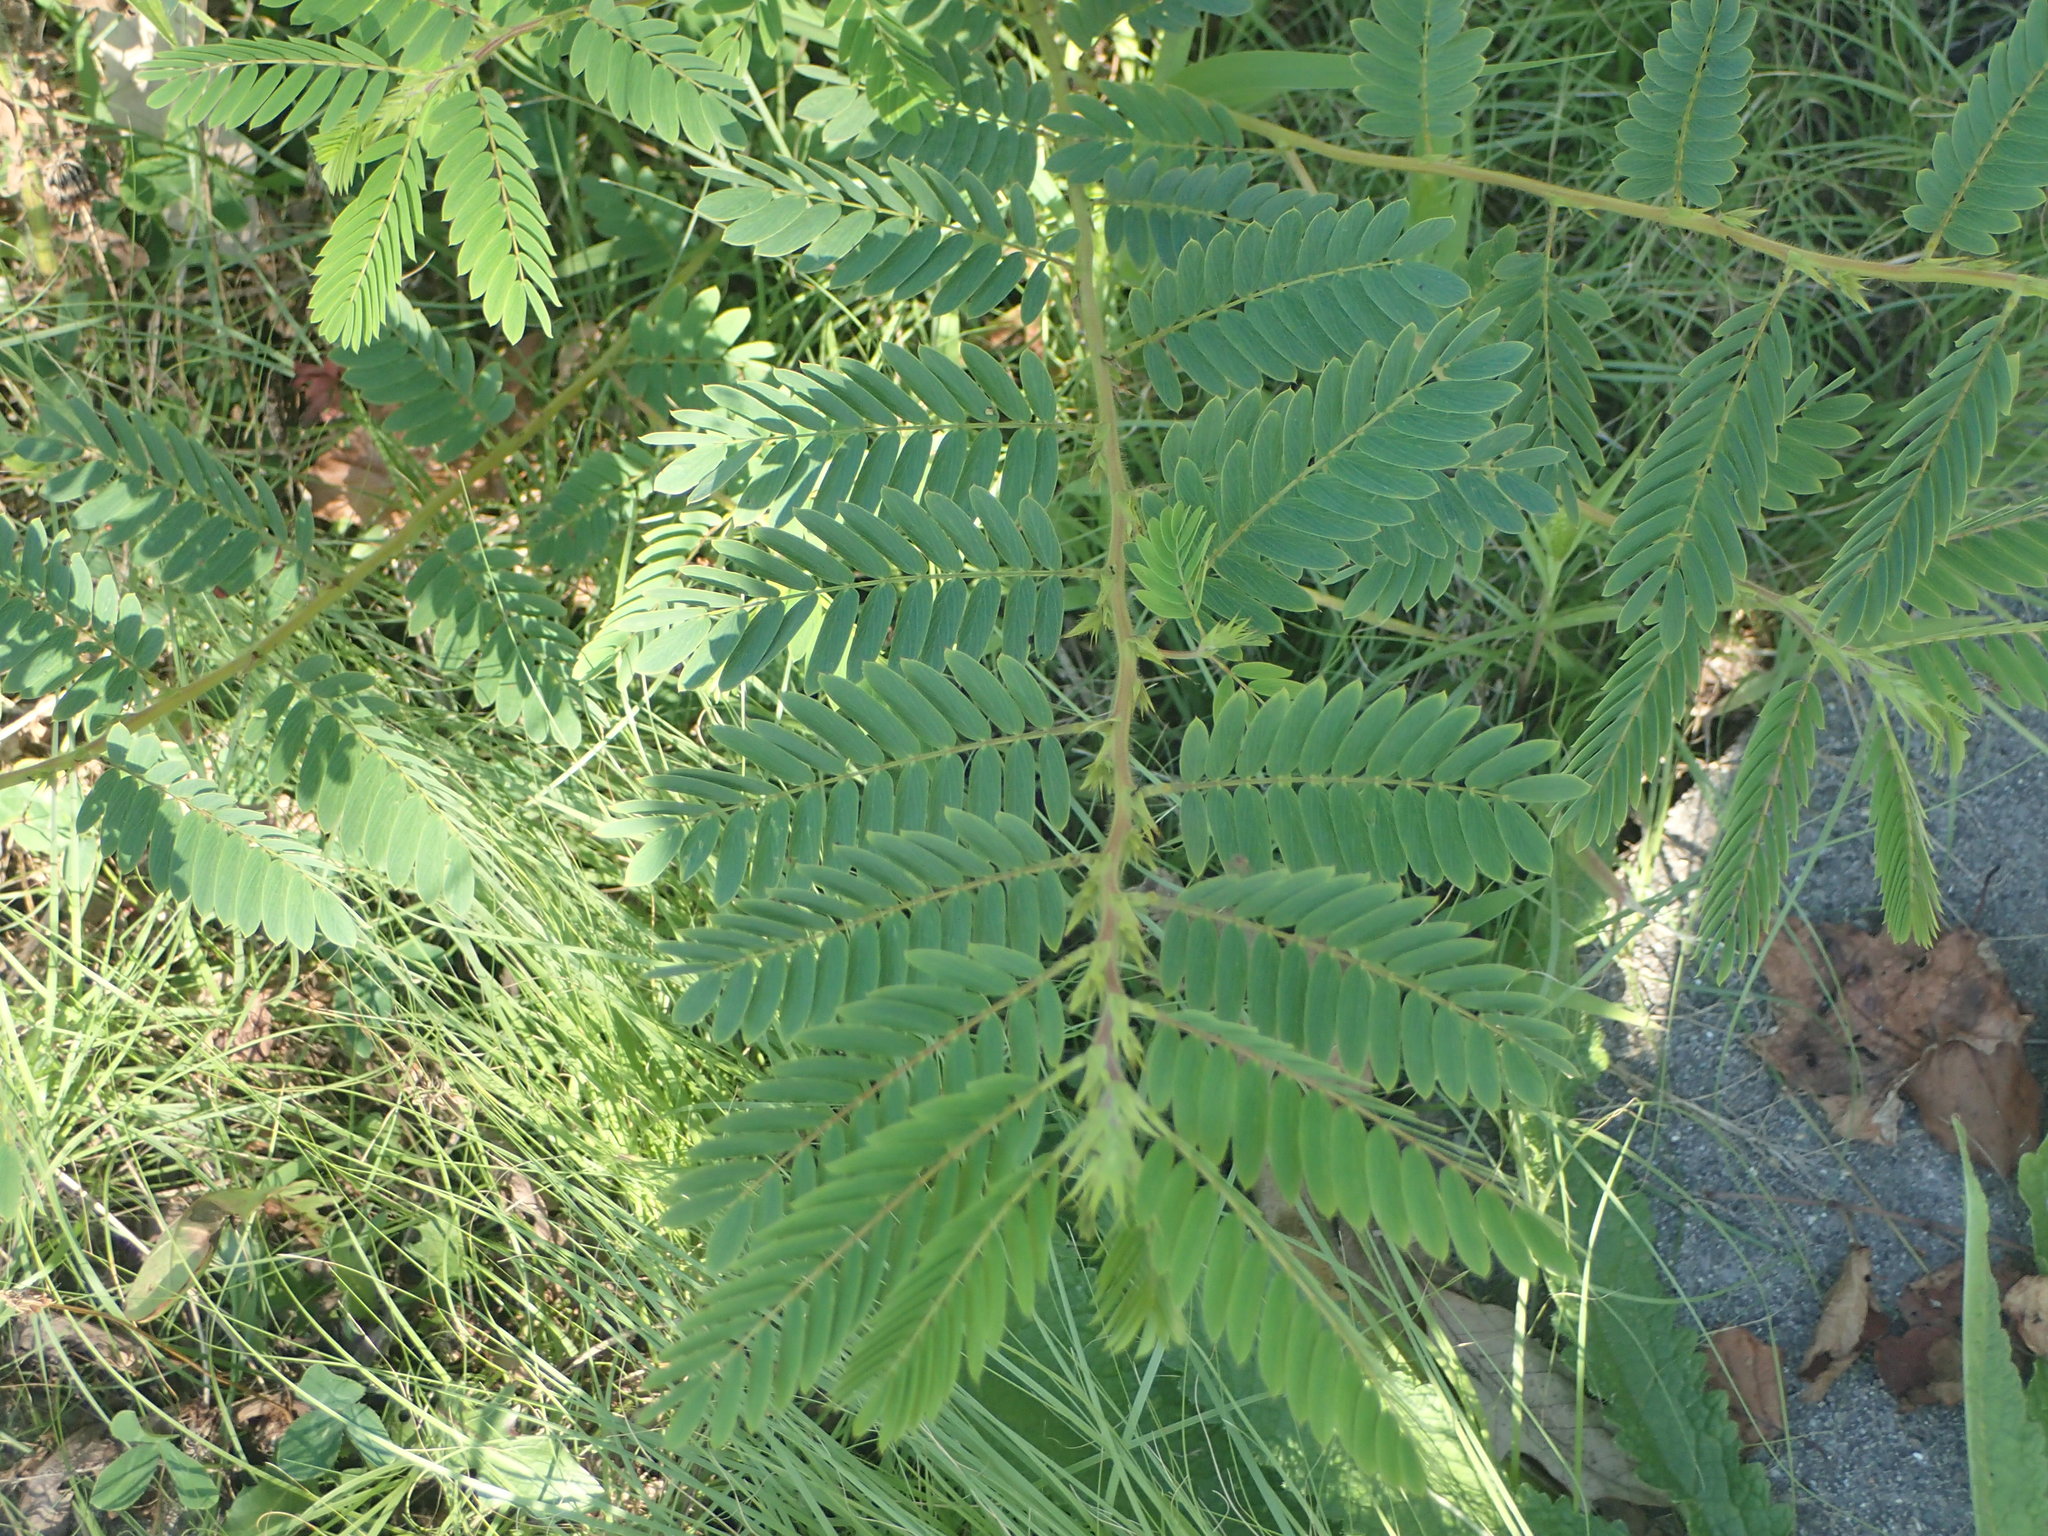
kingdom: Plantae
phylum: Tracheophyta
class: Magnoliopsida
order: Fabales
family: Fabaceae
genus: Albizia
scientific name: Albizia julibrissin
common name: Silktree
